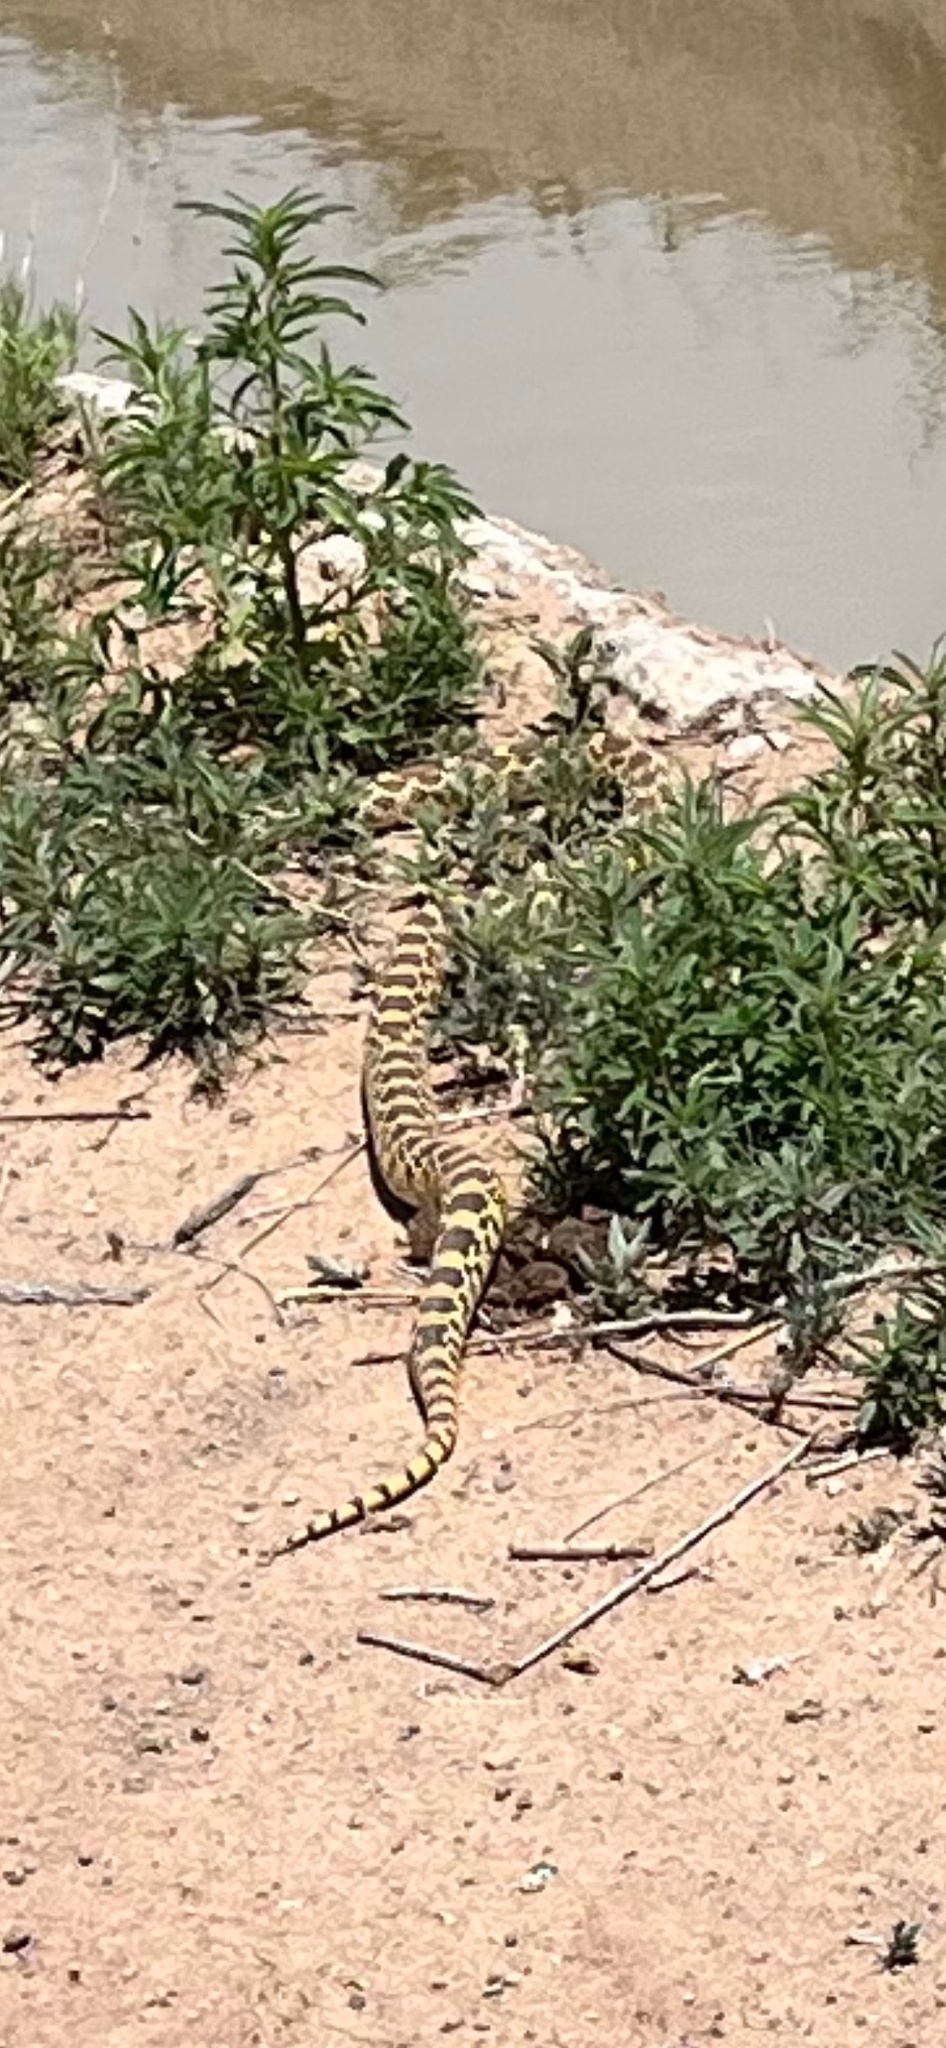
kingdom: Animalia
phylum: Chordata
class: Squamata
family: Colubridae
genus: Pituophis
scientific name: Pituophis catenifer
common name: Gopher snake
